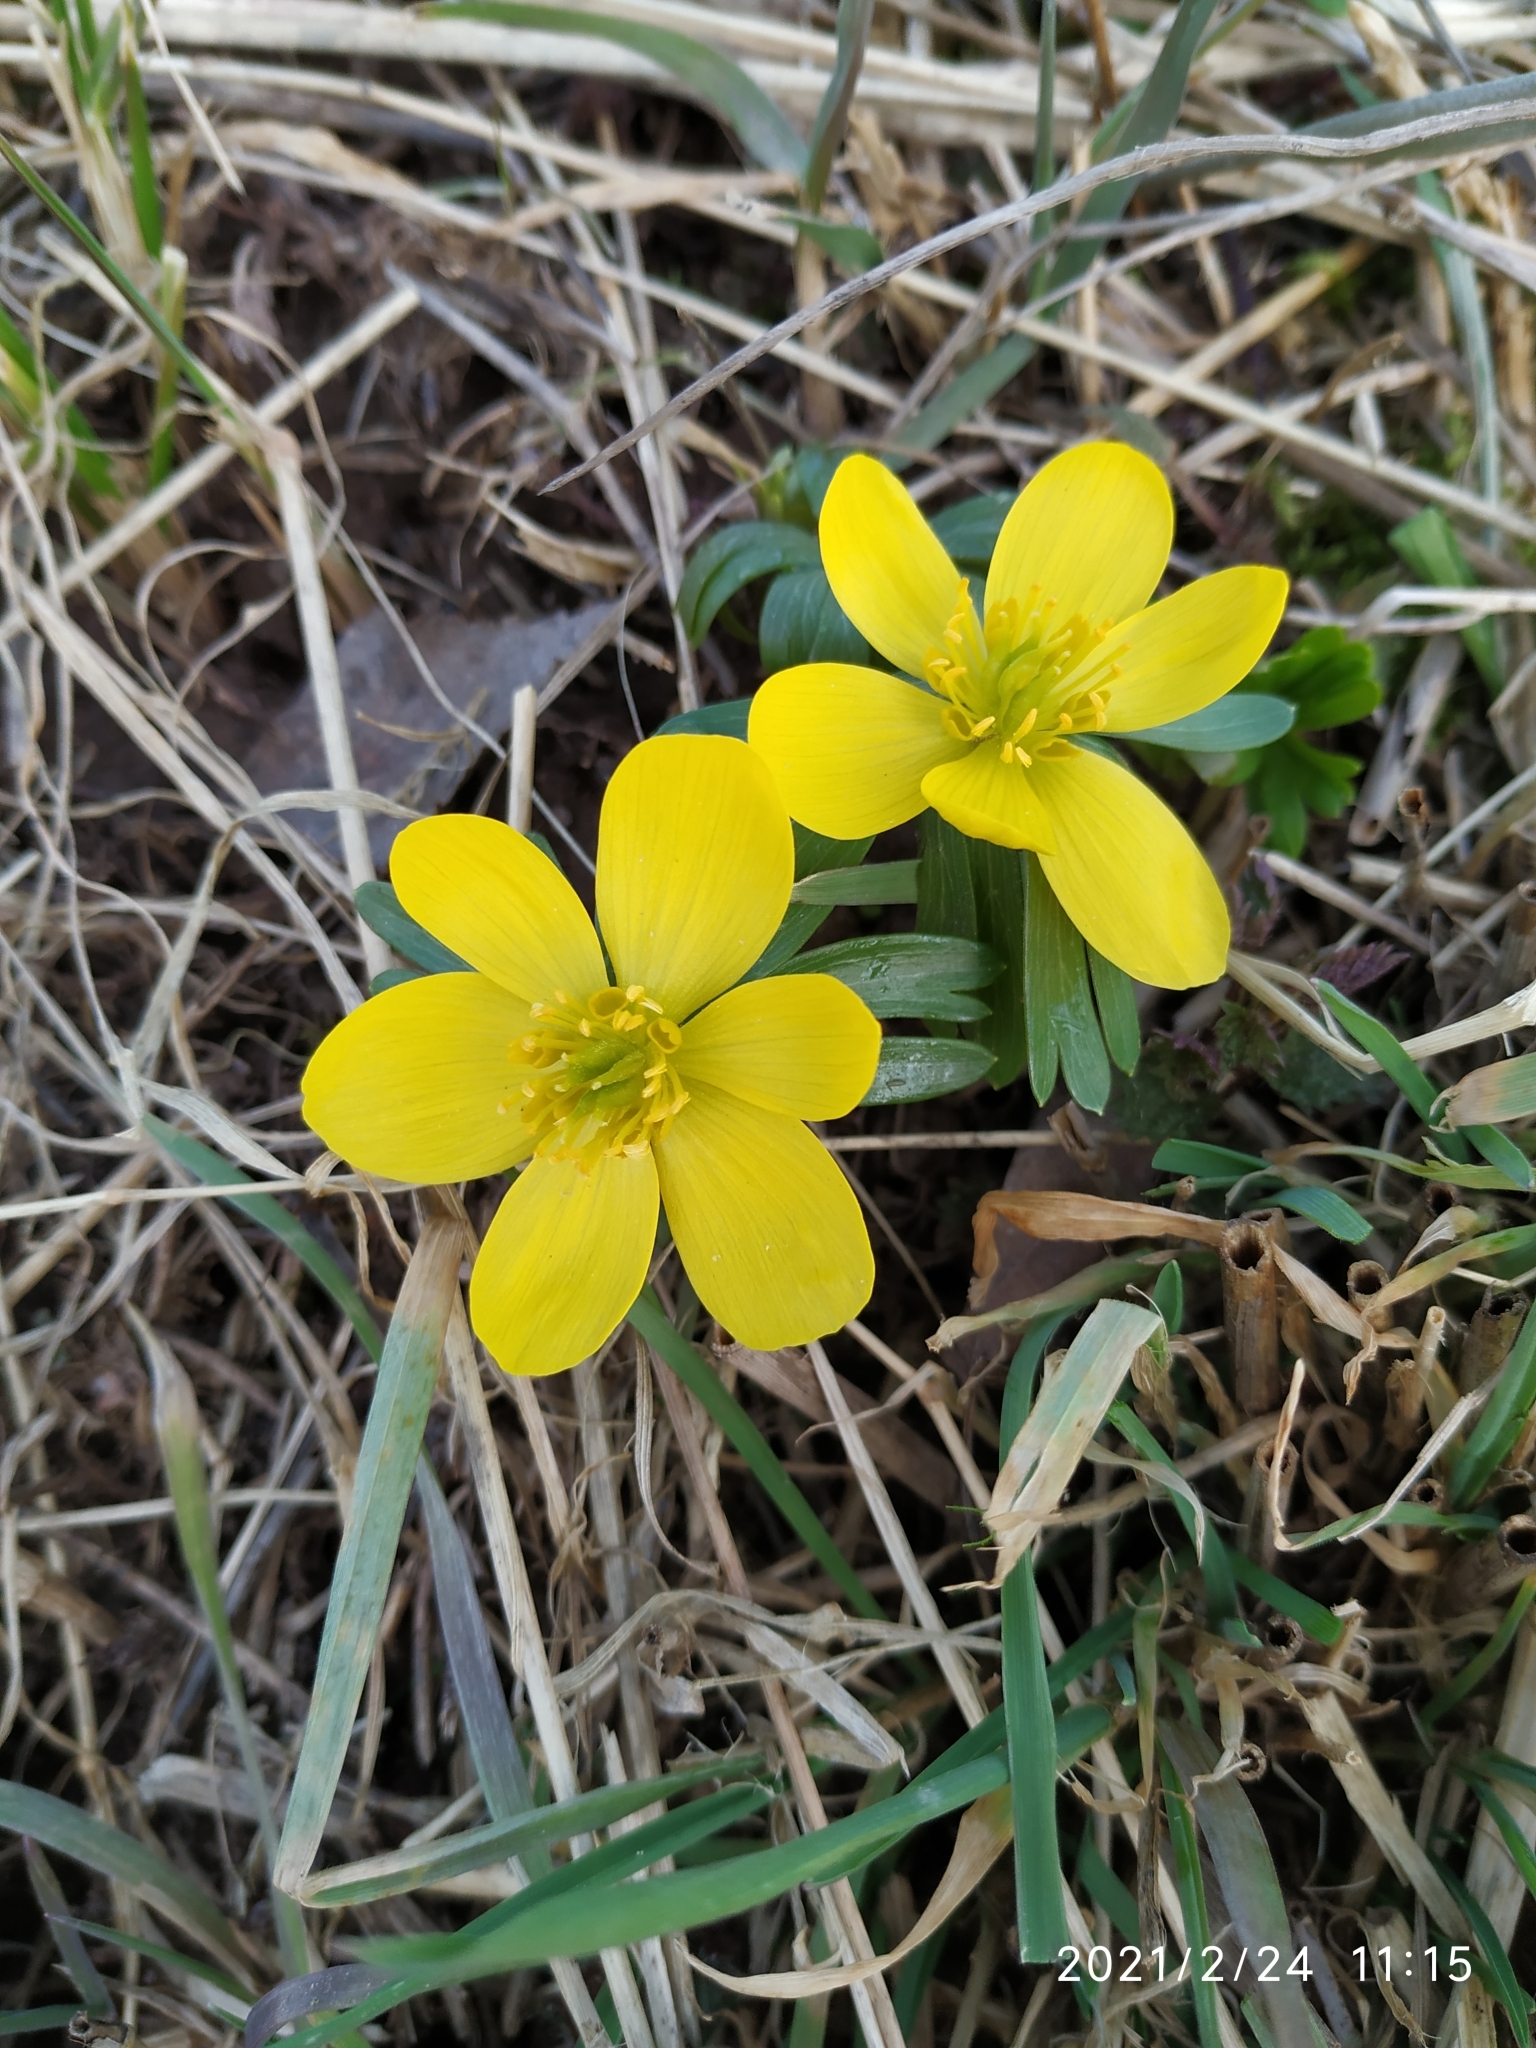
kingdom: Plantae
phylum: Tracheophyta
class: Magnoliopsida
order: Ranunculales
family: Ranunculaceae
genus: Eranthis
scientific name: Eranthis hyemalis
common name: Winter aconite
